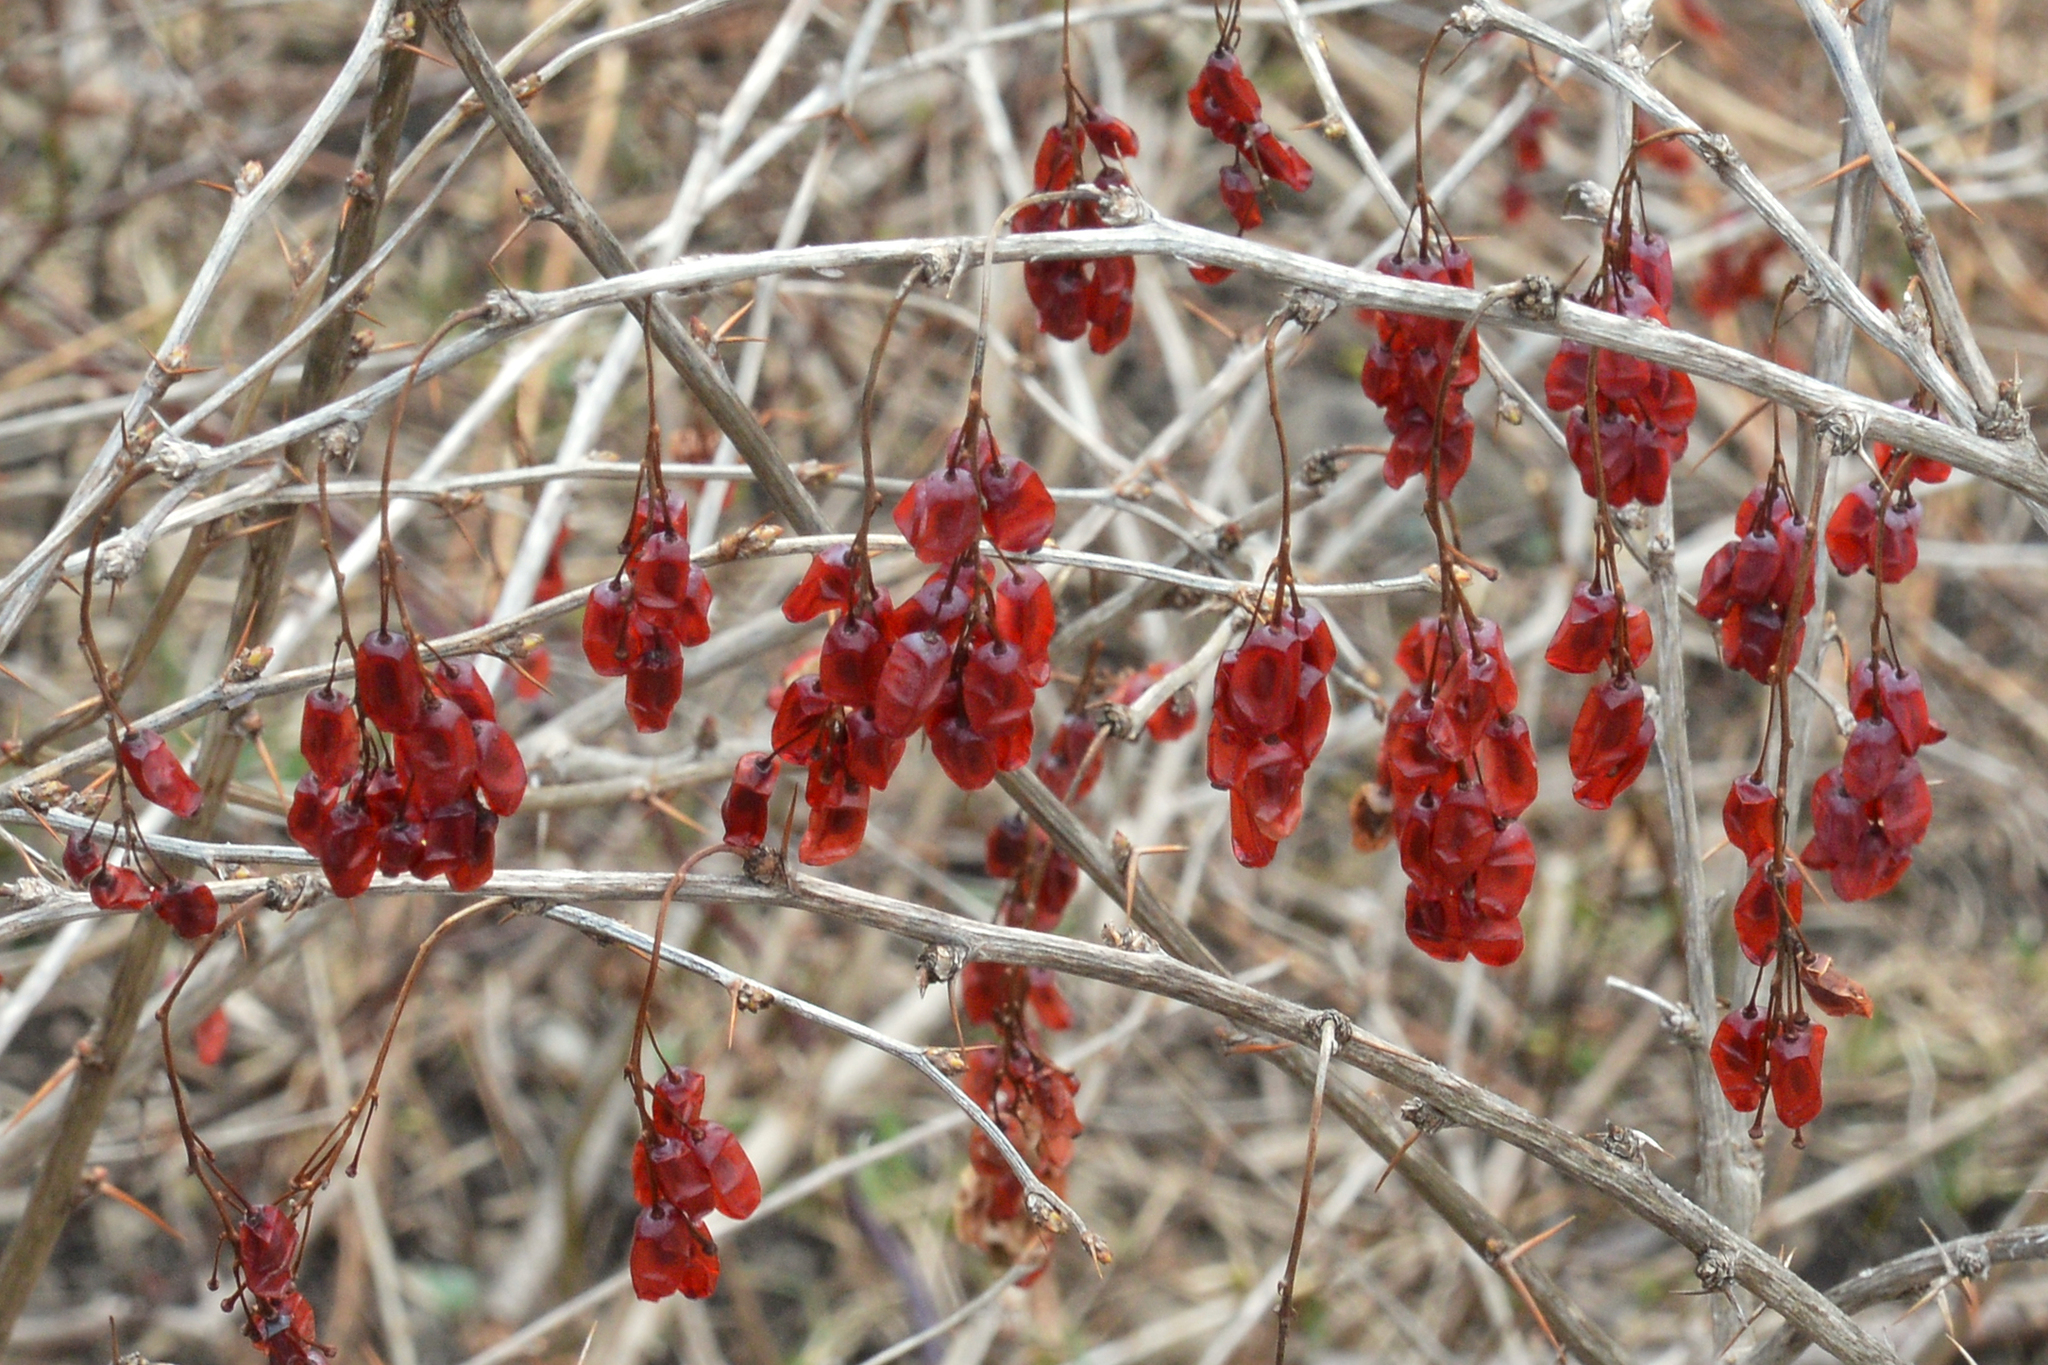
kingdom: Plantae
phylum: Tracheophyta
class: Magnoliopsida
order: Ranunculales
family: Berberidaceae
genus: Berberis
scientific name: Berberis vulgaris
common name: Barberry
